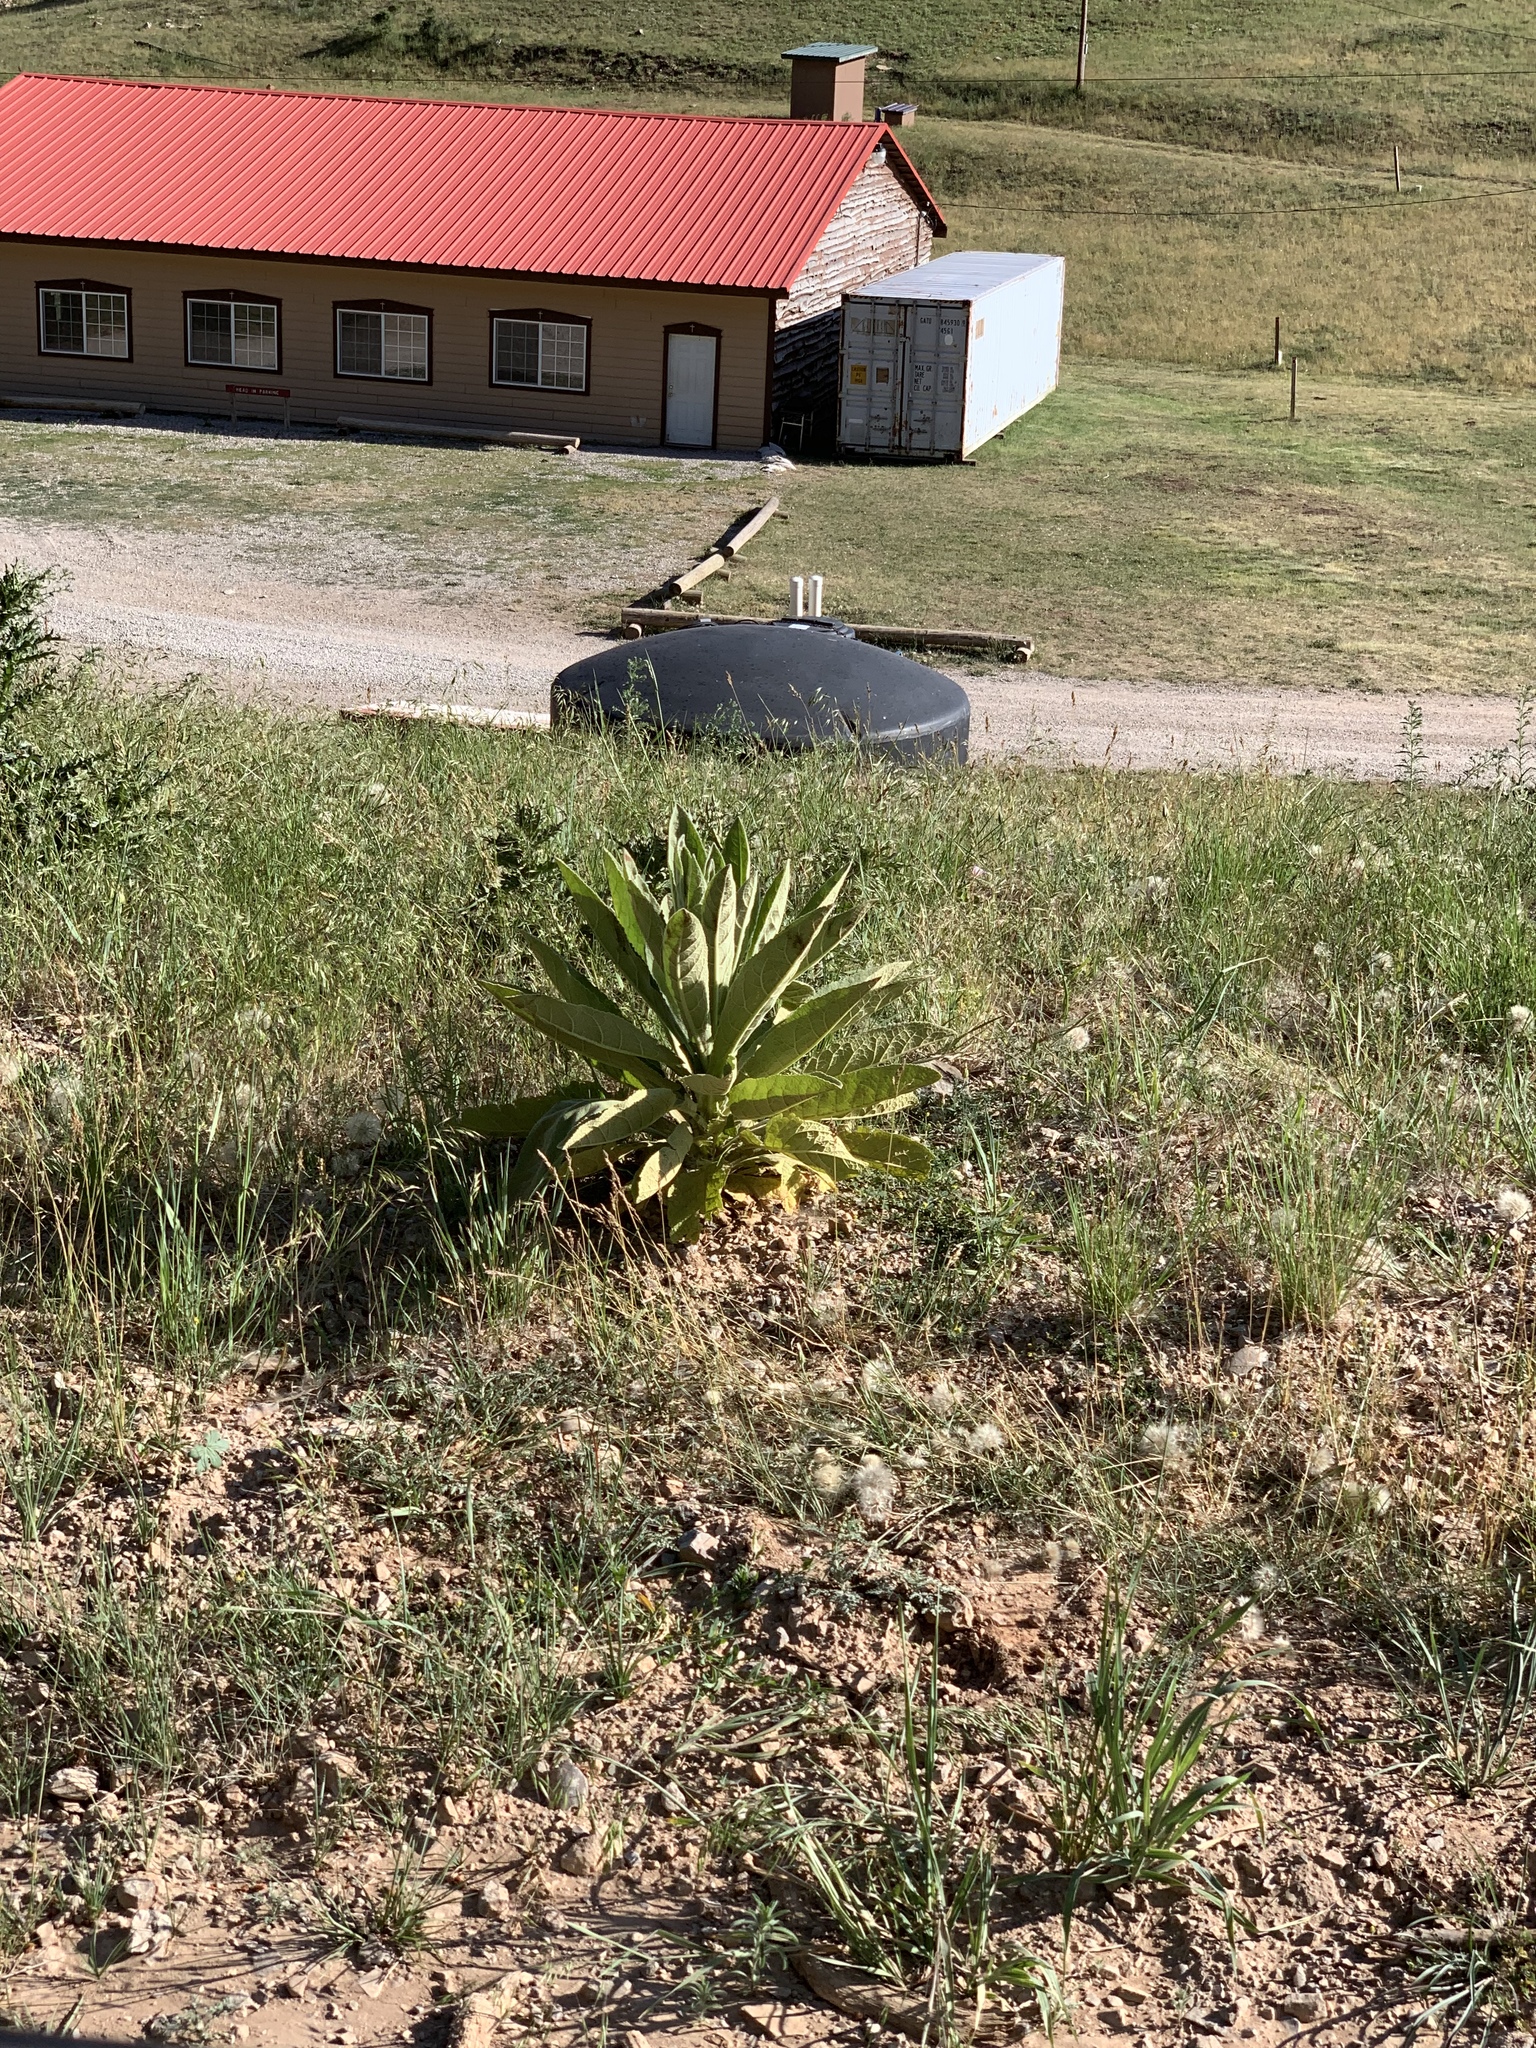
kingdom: Plantae
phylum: Tracheophyta
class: Magnoliopsida
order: Lamiales
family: Scrophulariaceae
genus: Verbascum
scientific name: Verbascum thapsus
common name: Common mullein
